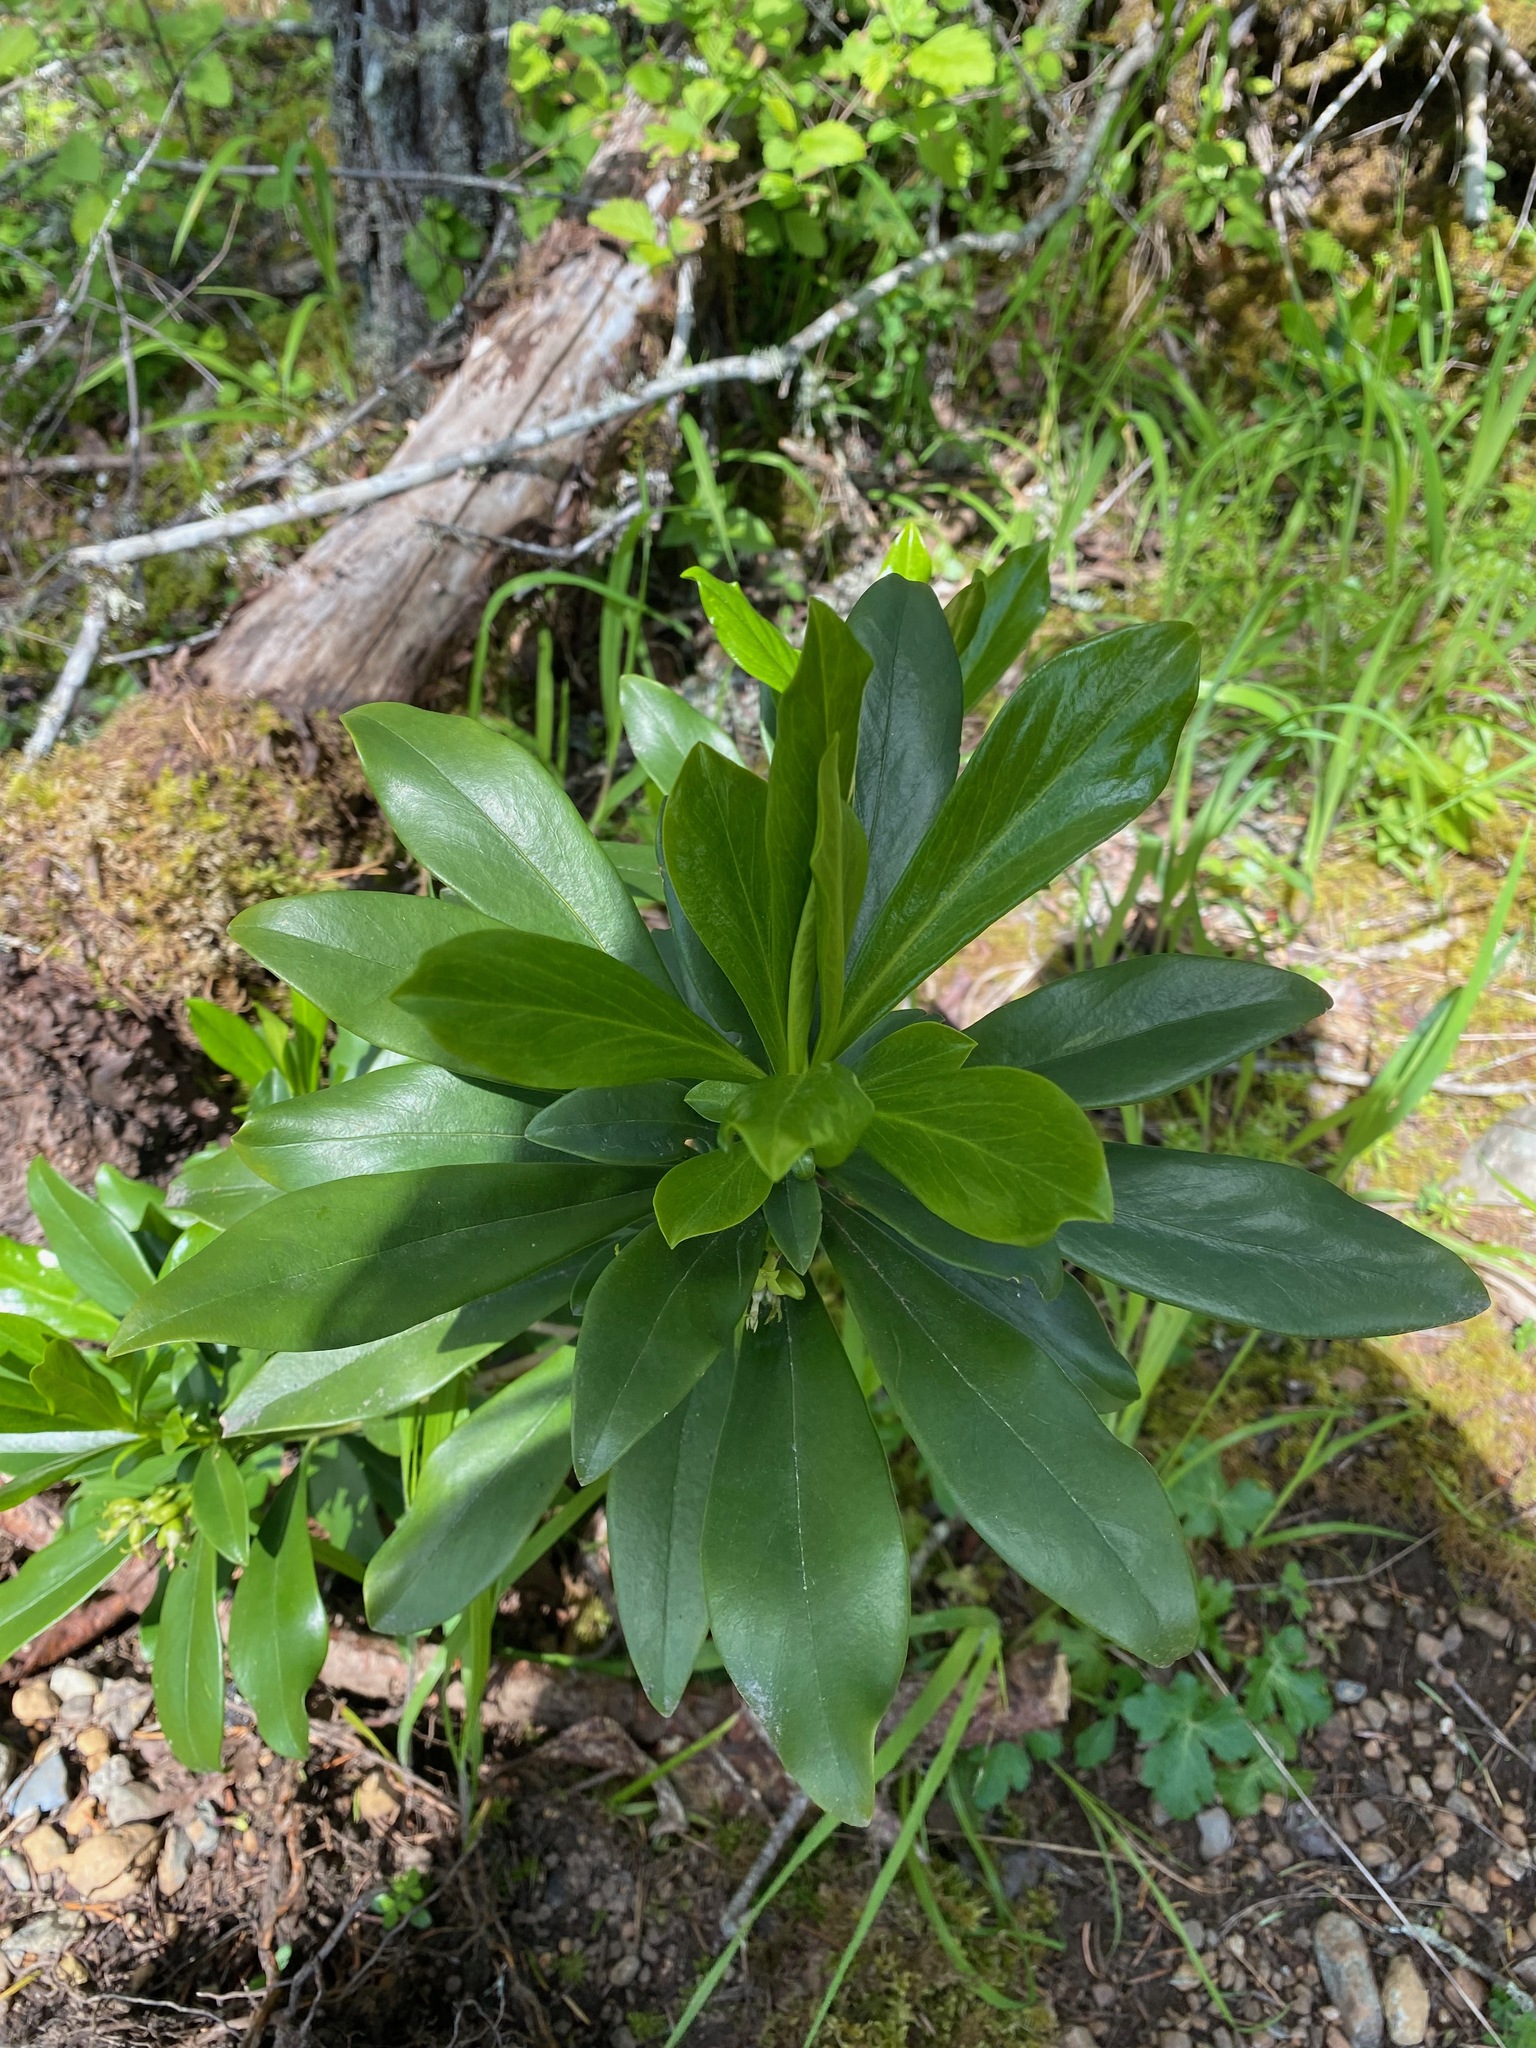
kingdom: Plantae
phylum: Tracheophyta
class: Magnoliopsida
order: Malvales
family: Thymelaeaceae
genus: Daphne
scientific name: Daphne laureola
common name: Spurge-laurel
